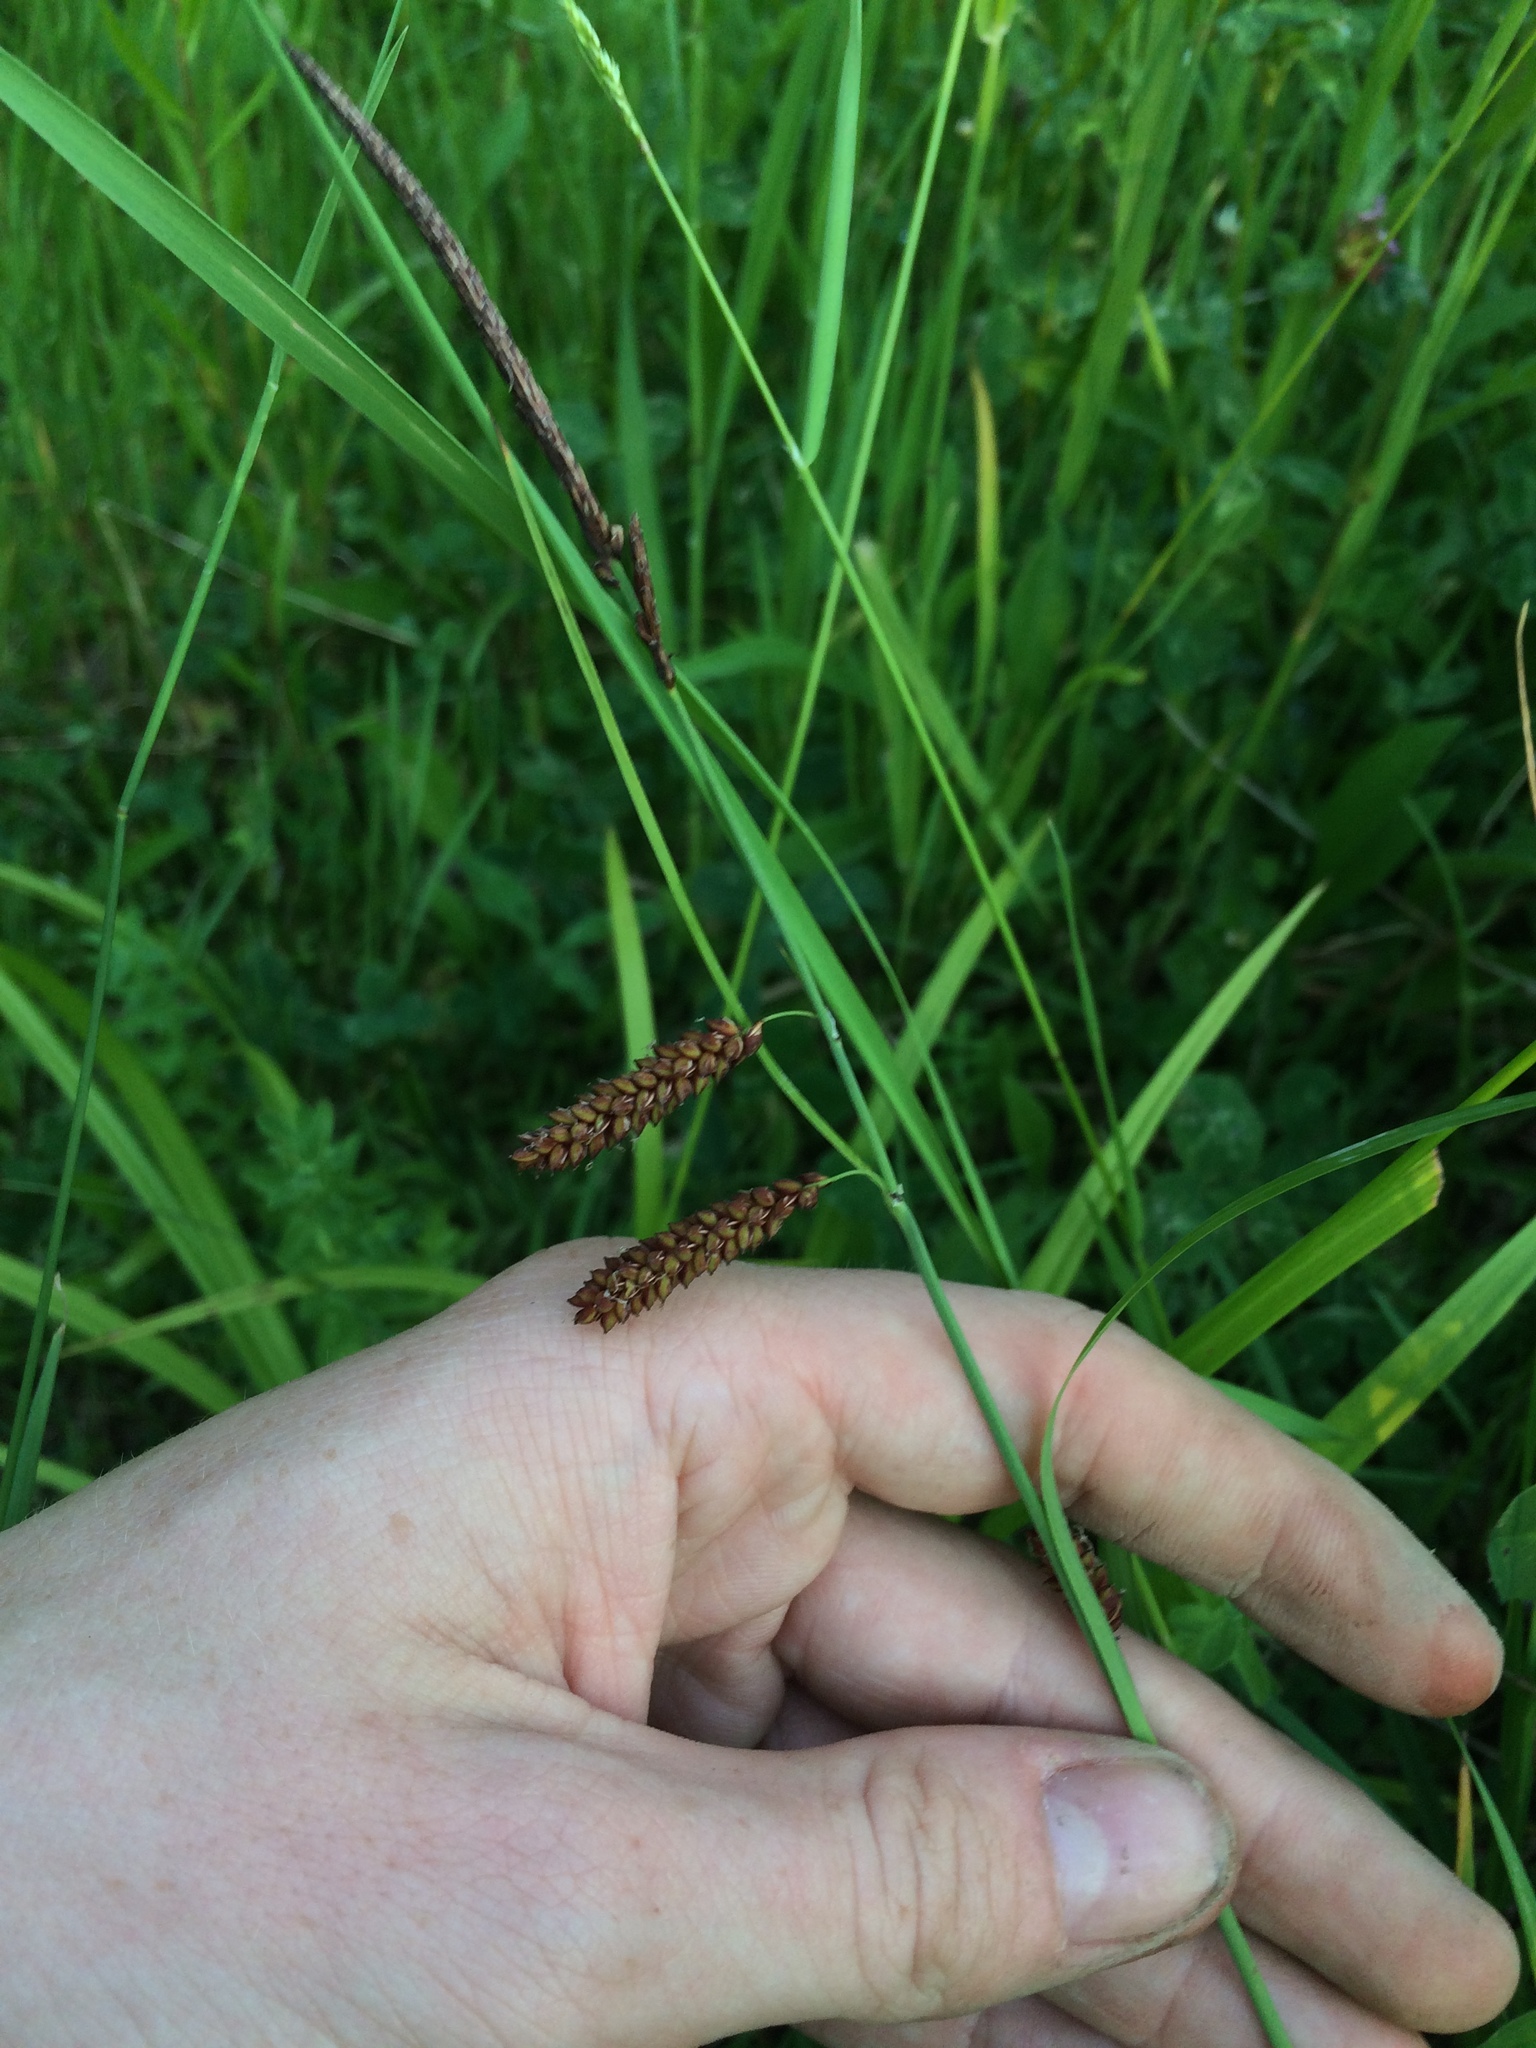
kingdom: Plantae
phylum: Tracheophyta
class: Liliopsida
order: Poales
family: Cyperaceae
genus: Carex
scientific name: Carex flacca
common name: Glaucous sedge
